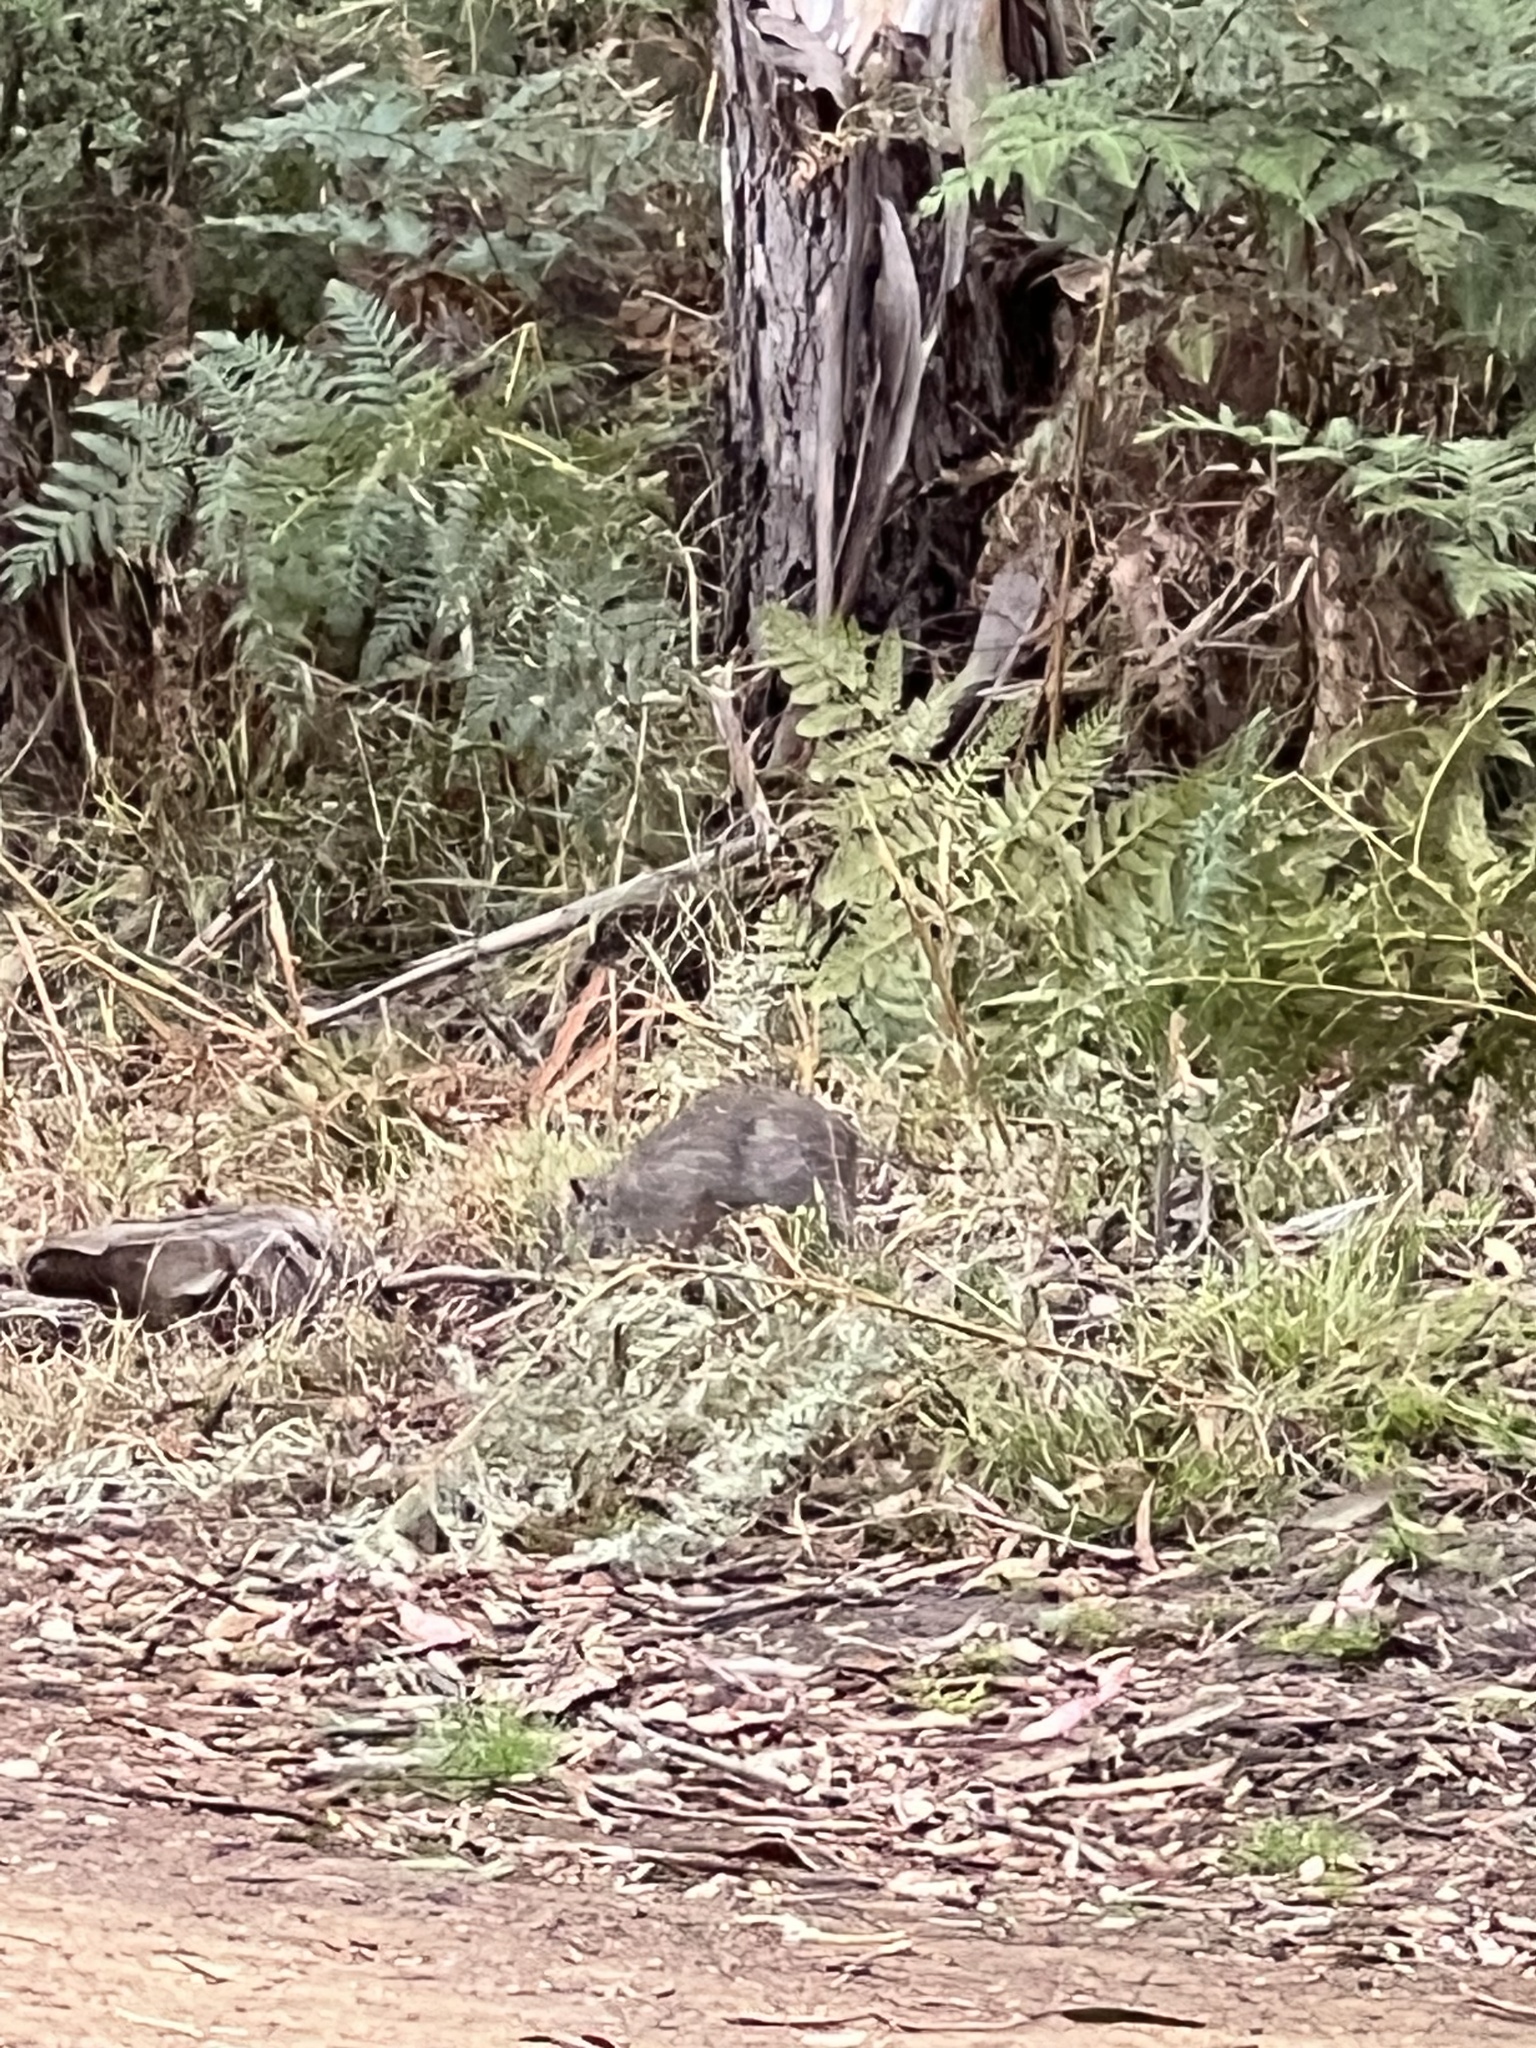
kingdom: Animalia
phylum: Chordata
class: Mammalia
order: Peramelemorphia
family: Peramelidae
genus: Isoodon
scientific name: Isoodon obesulus
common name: Southern brown bandicoot
